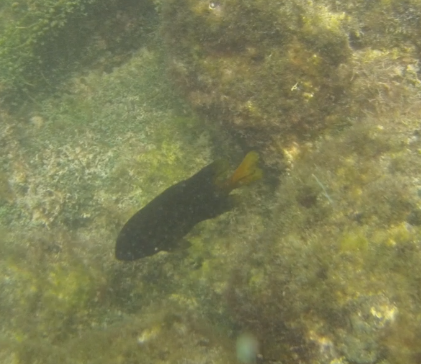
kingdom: Animalia
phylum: Chordata
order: Perciformes
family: Pomacentridae
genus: Stegastes
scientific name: Stegastes arcifrons
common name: Galapagos gregory
